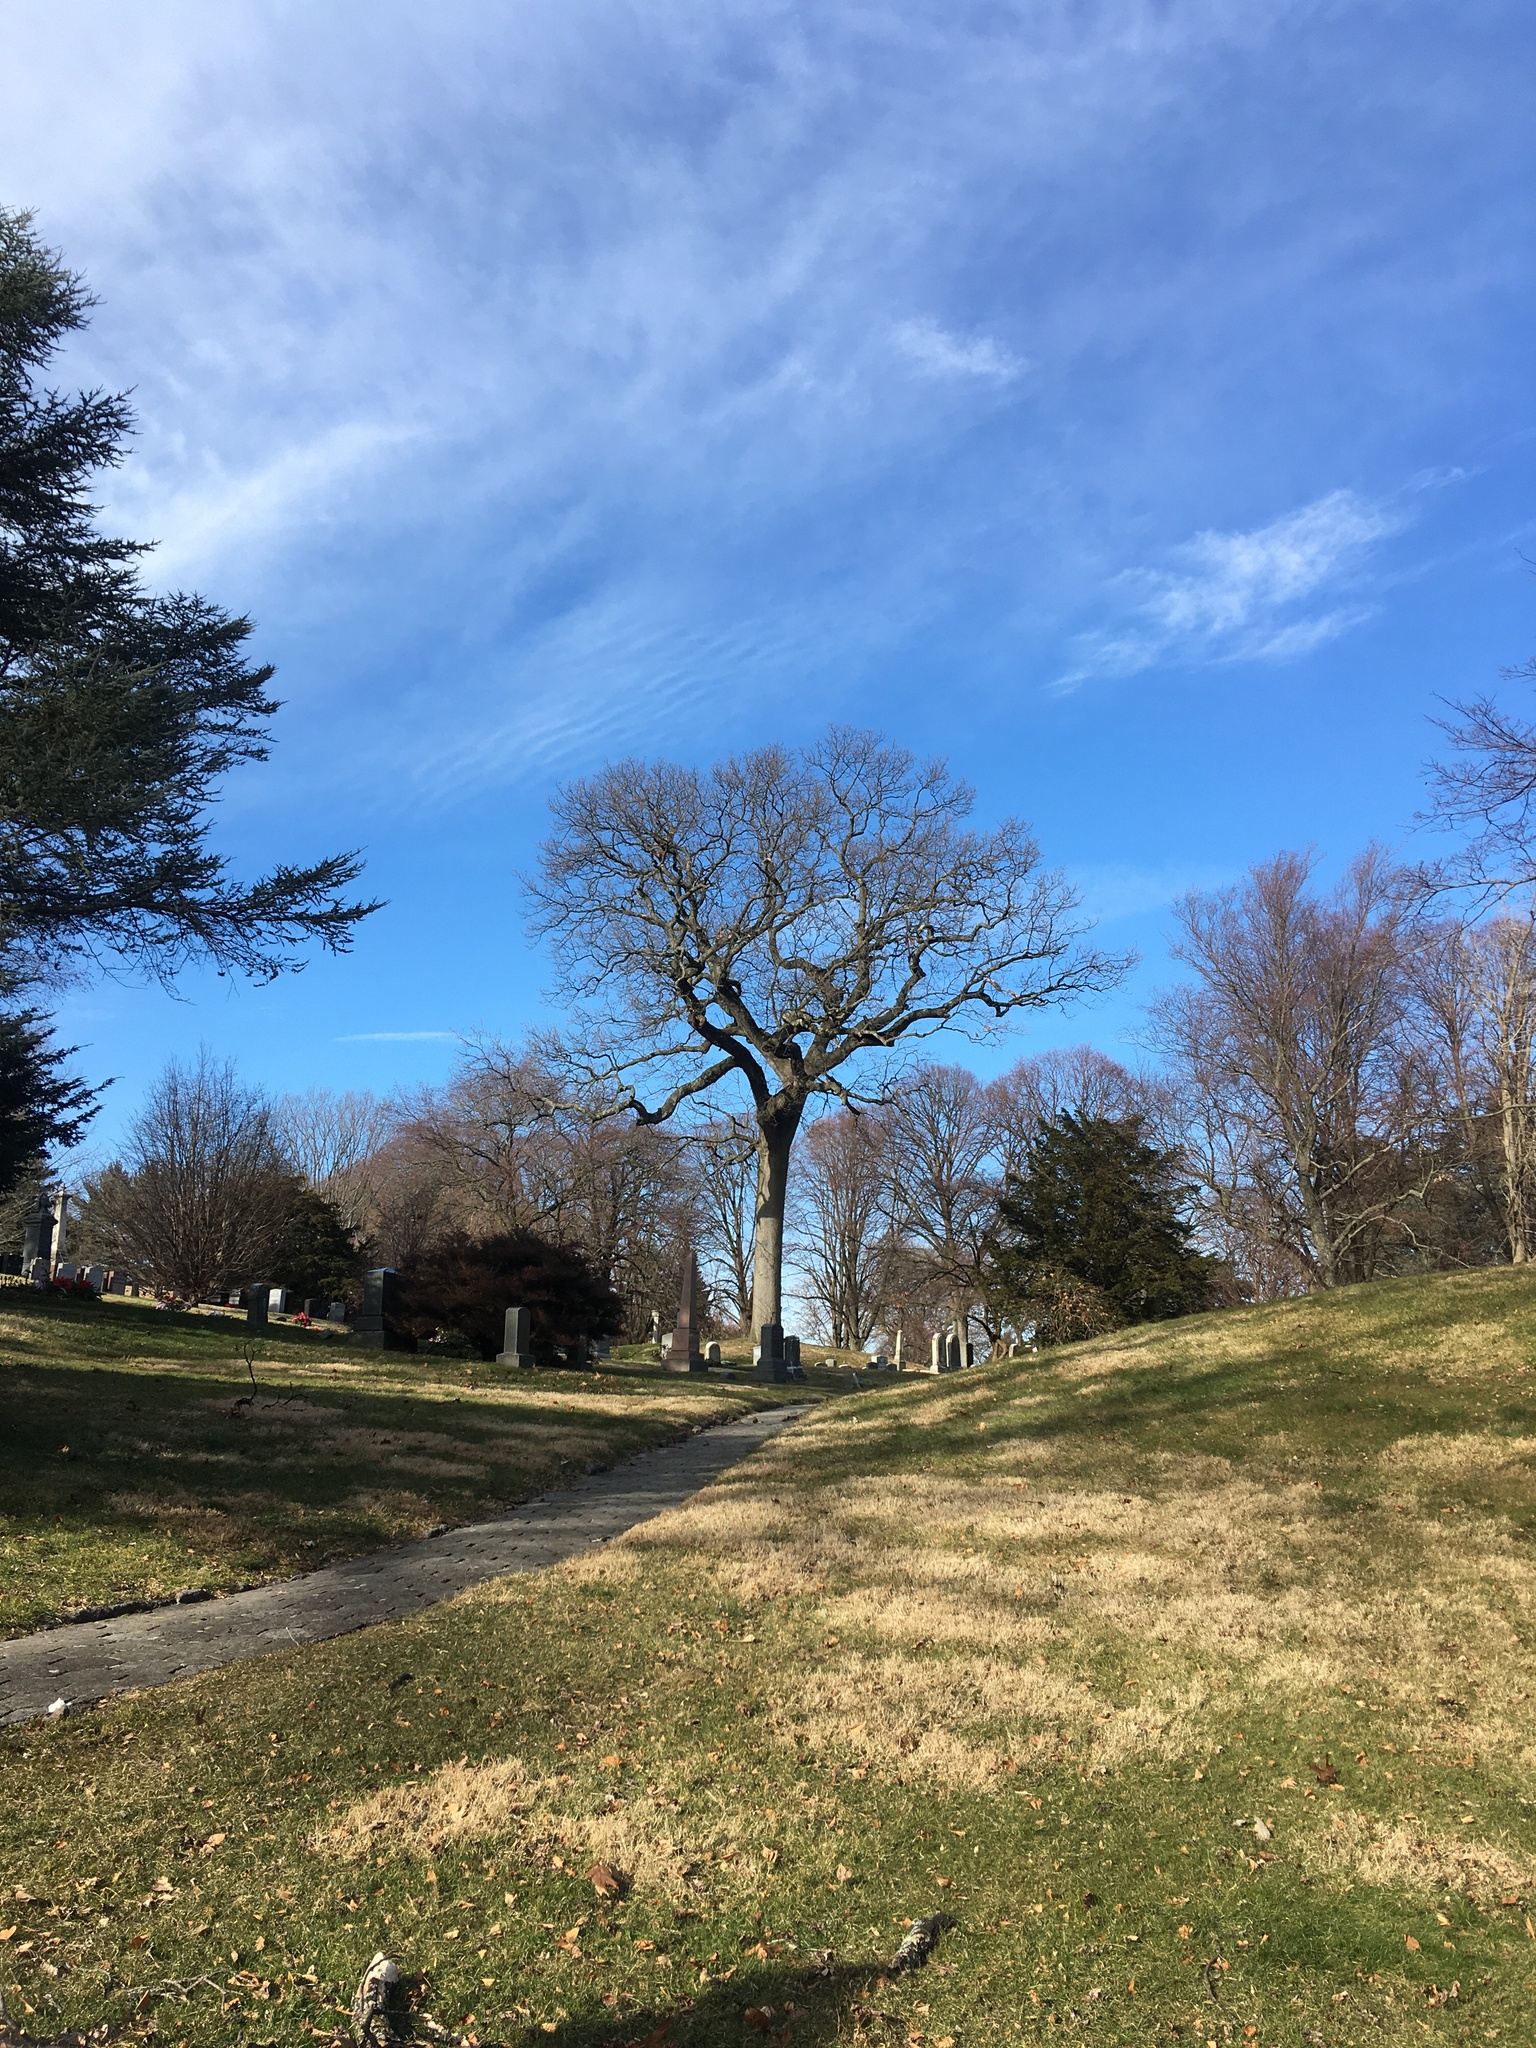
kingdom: Plantae
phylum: Tracheophyta
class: Magnoliopsida
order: Fagales
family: Fagaceae
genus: Quercus
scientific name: Quercus velutina
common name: Black oak
